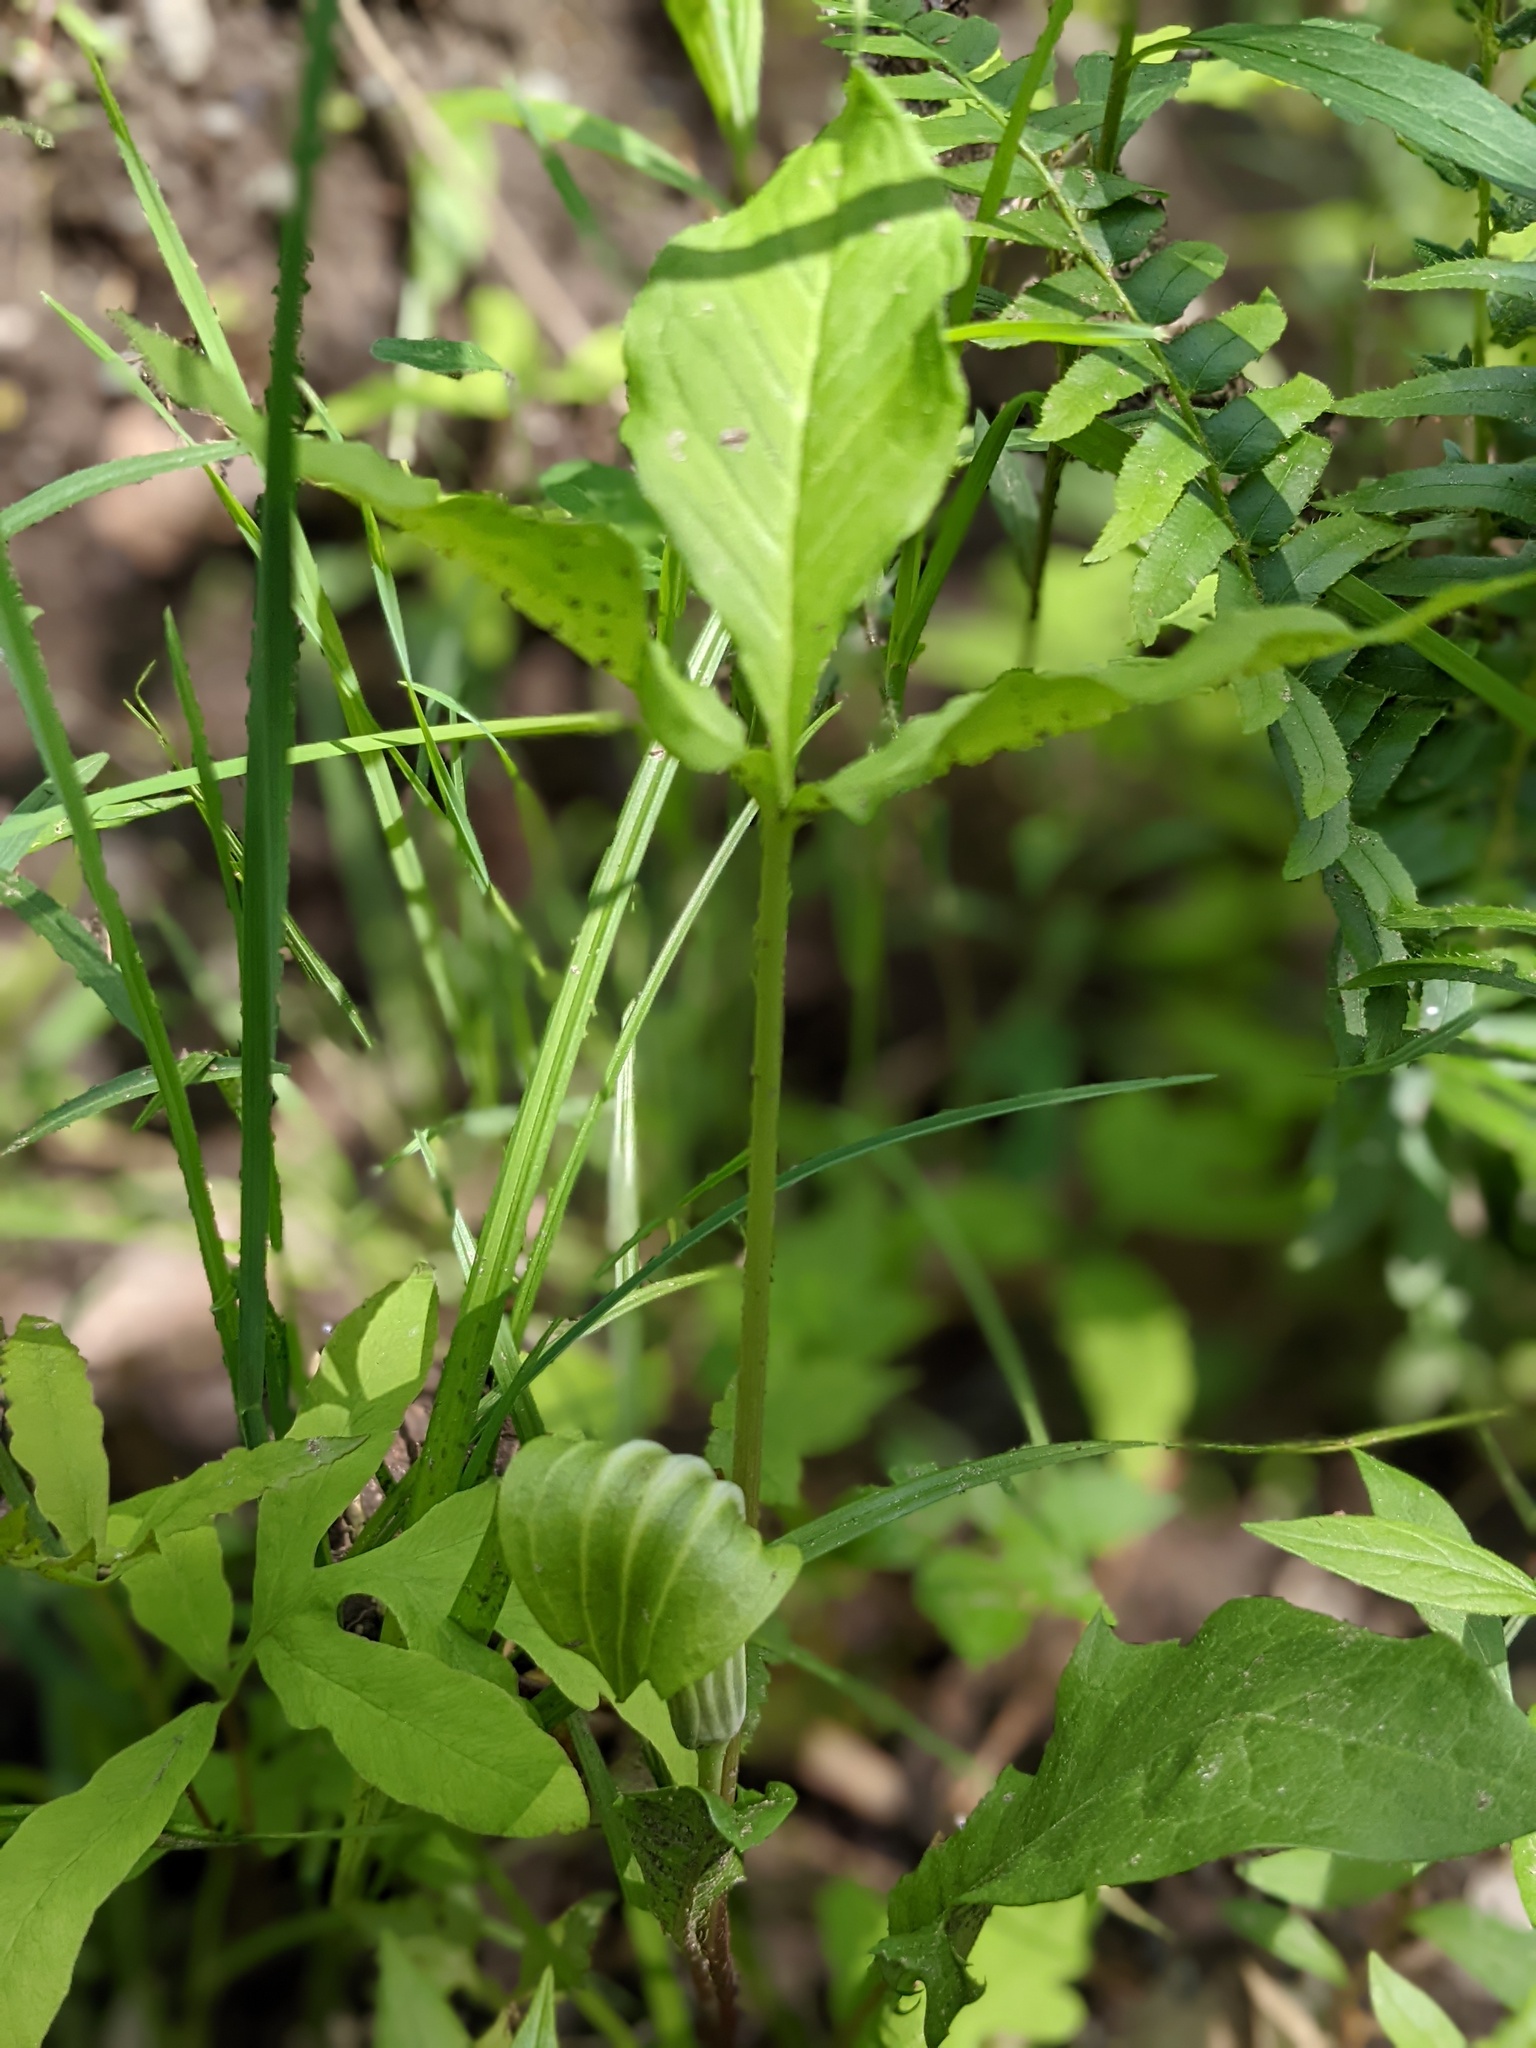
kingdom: Plantae
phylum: Tracheophyta
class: Liliopsida
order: Alismatales
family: Araceae
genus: Arisaema
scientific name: Arisaema stewardsonii
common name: Swamp jack-in-the-pulpit
